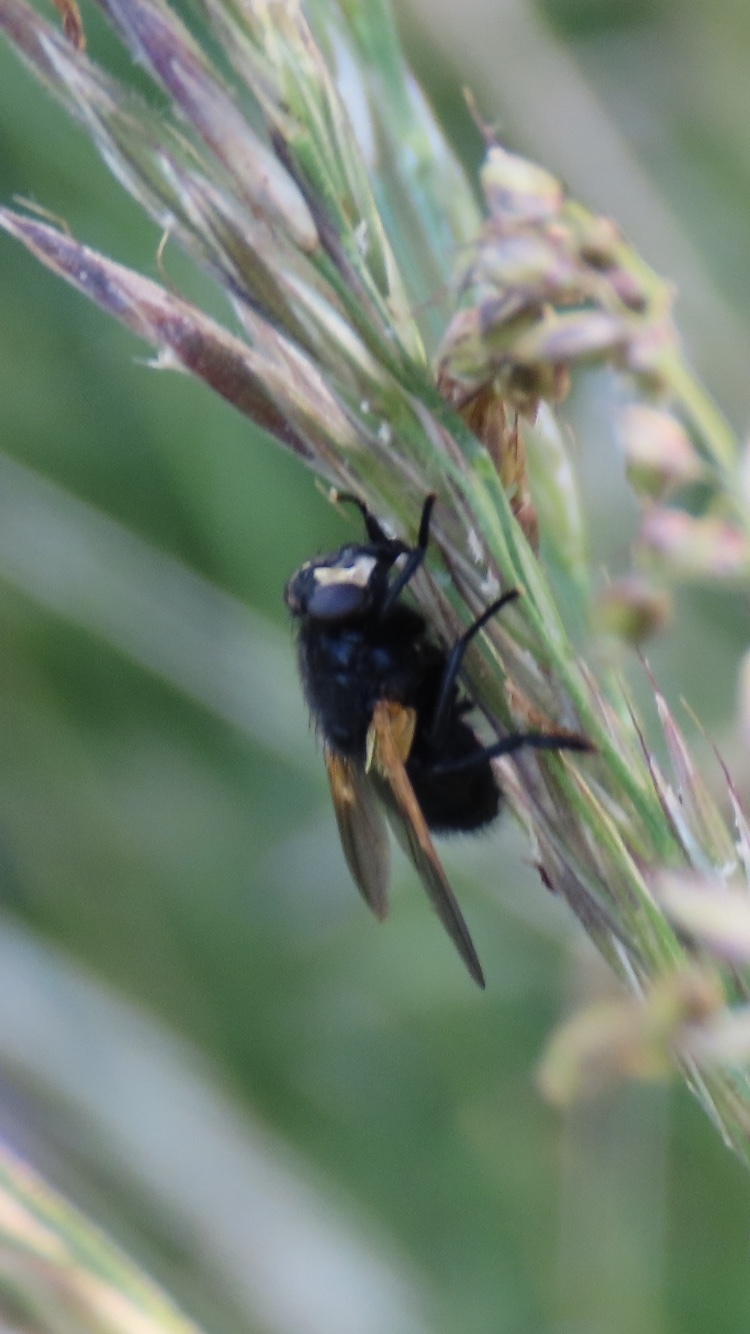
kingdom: Animalia
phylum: Arthropoda
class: Insecta
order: Diptera
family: Muscidae
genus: Mesembrina
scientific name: Mesembrina meridiana
